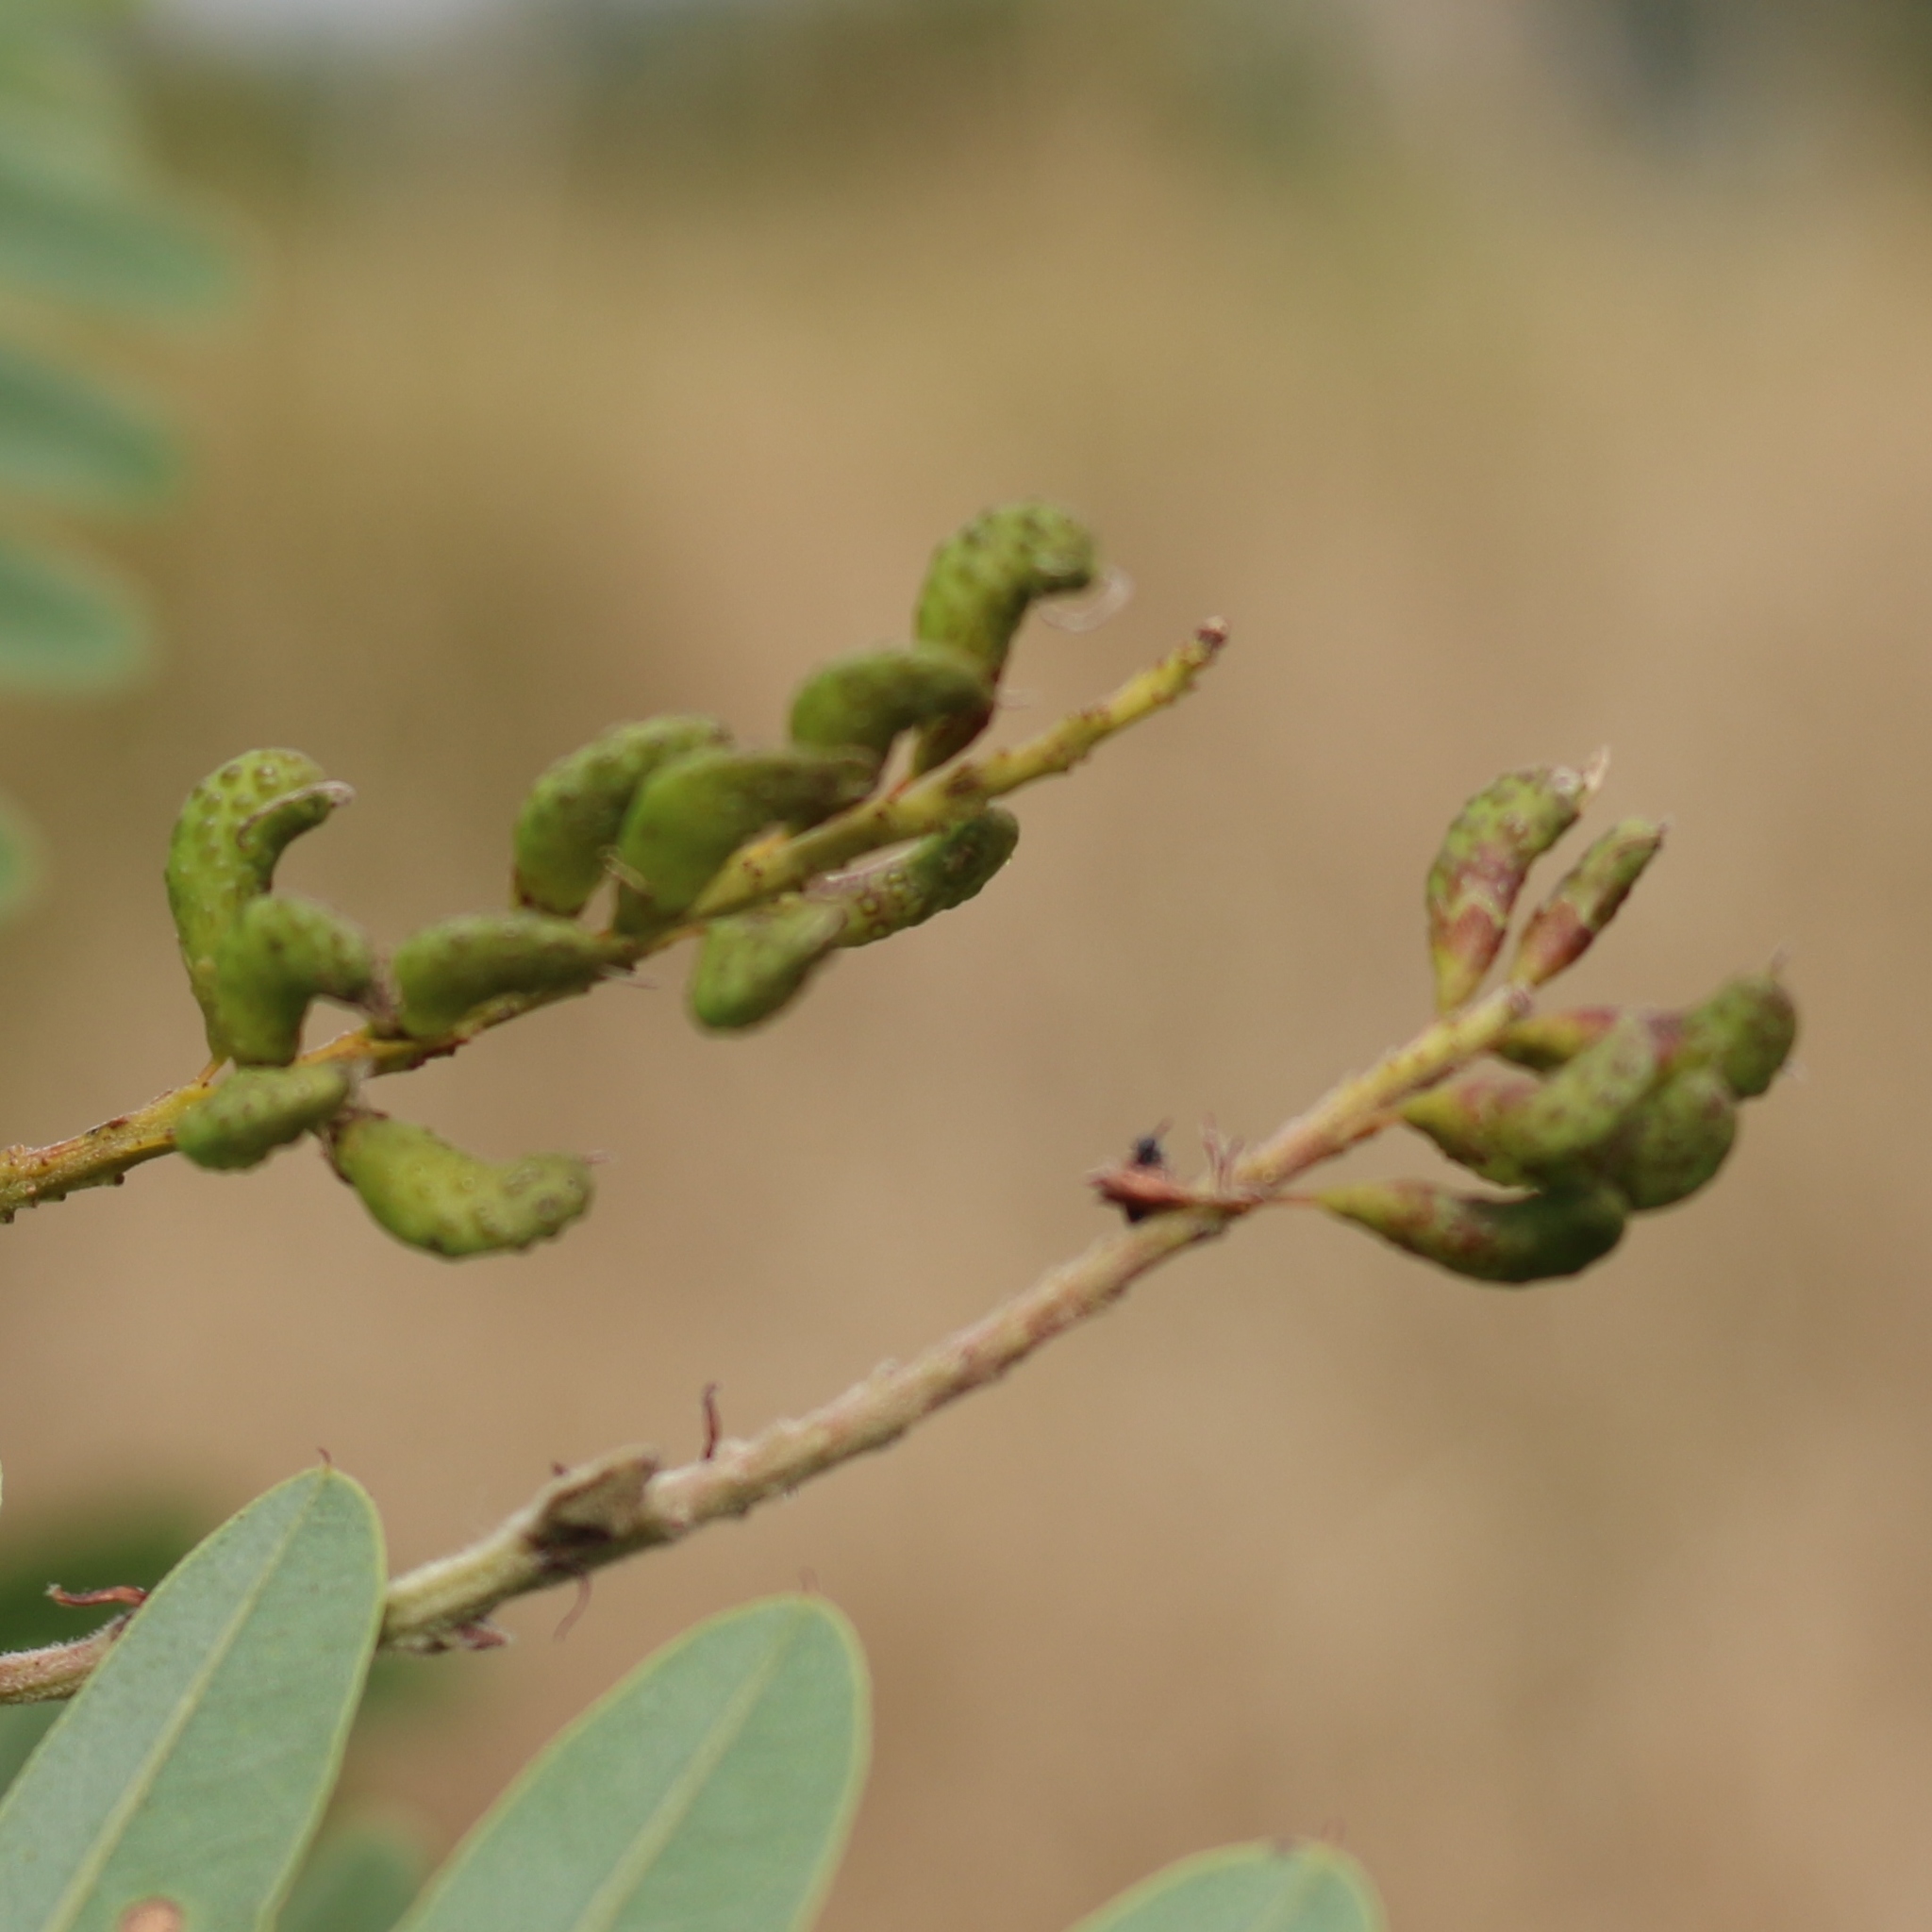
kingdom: Plantae
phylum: Tracheophyta
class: Magnoliopsida
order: Fabales
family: Fabaceae
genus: Amorpha
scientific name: Amorpha fruticosa
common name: False indigo
